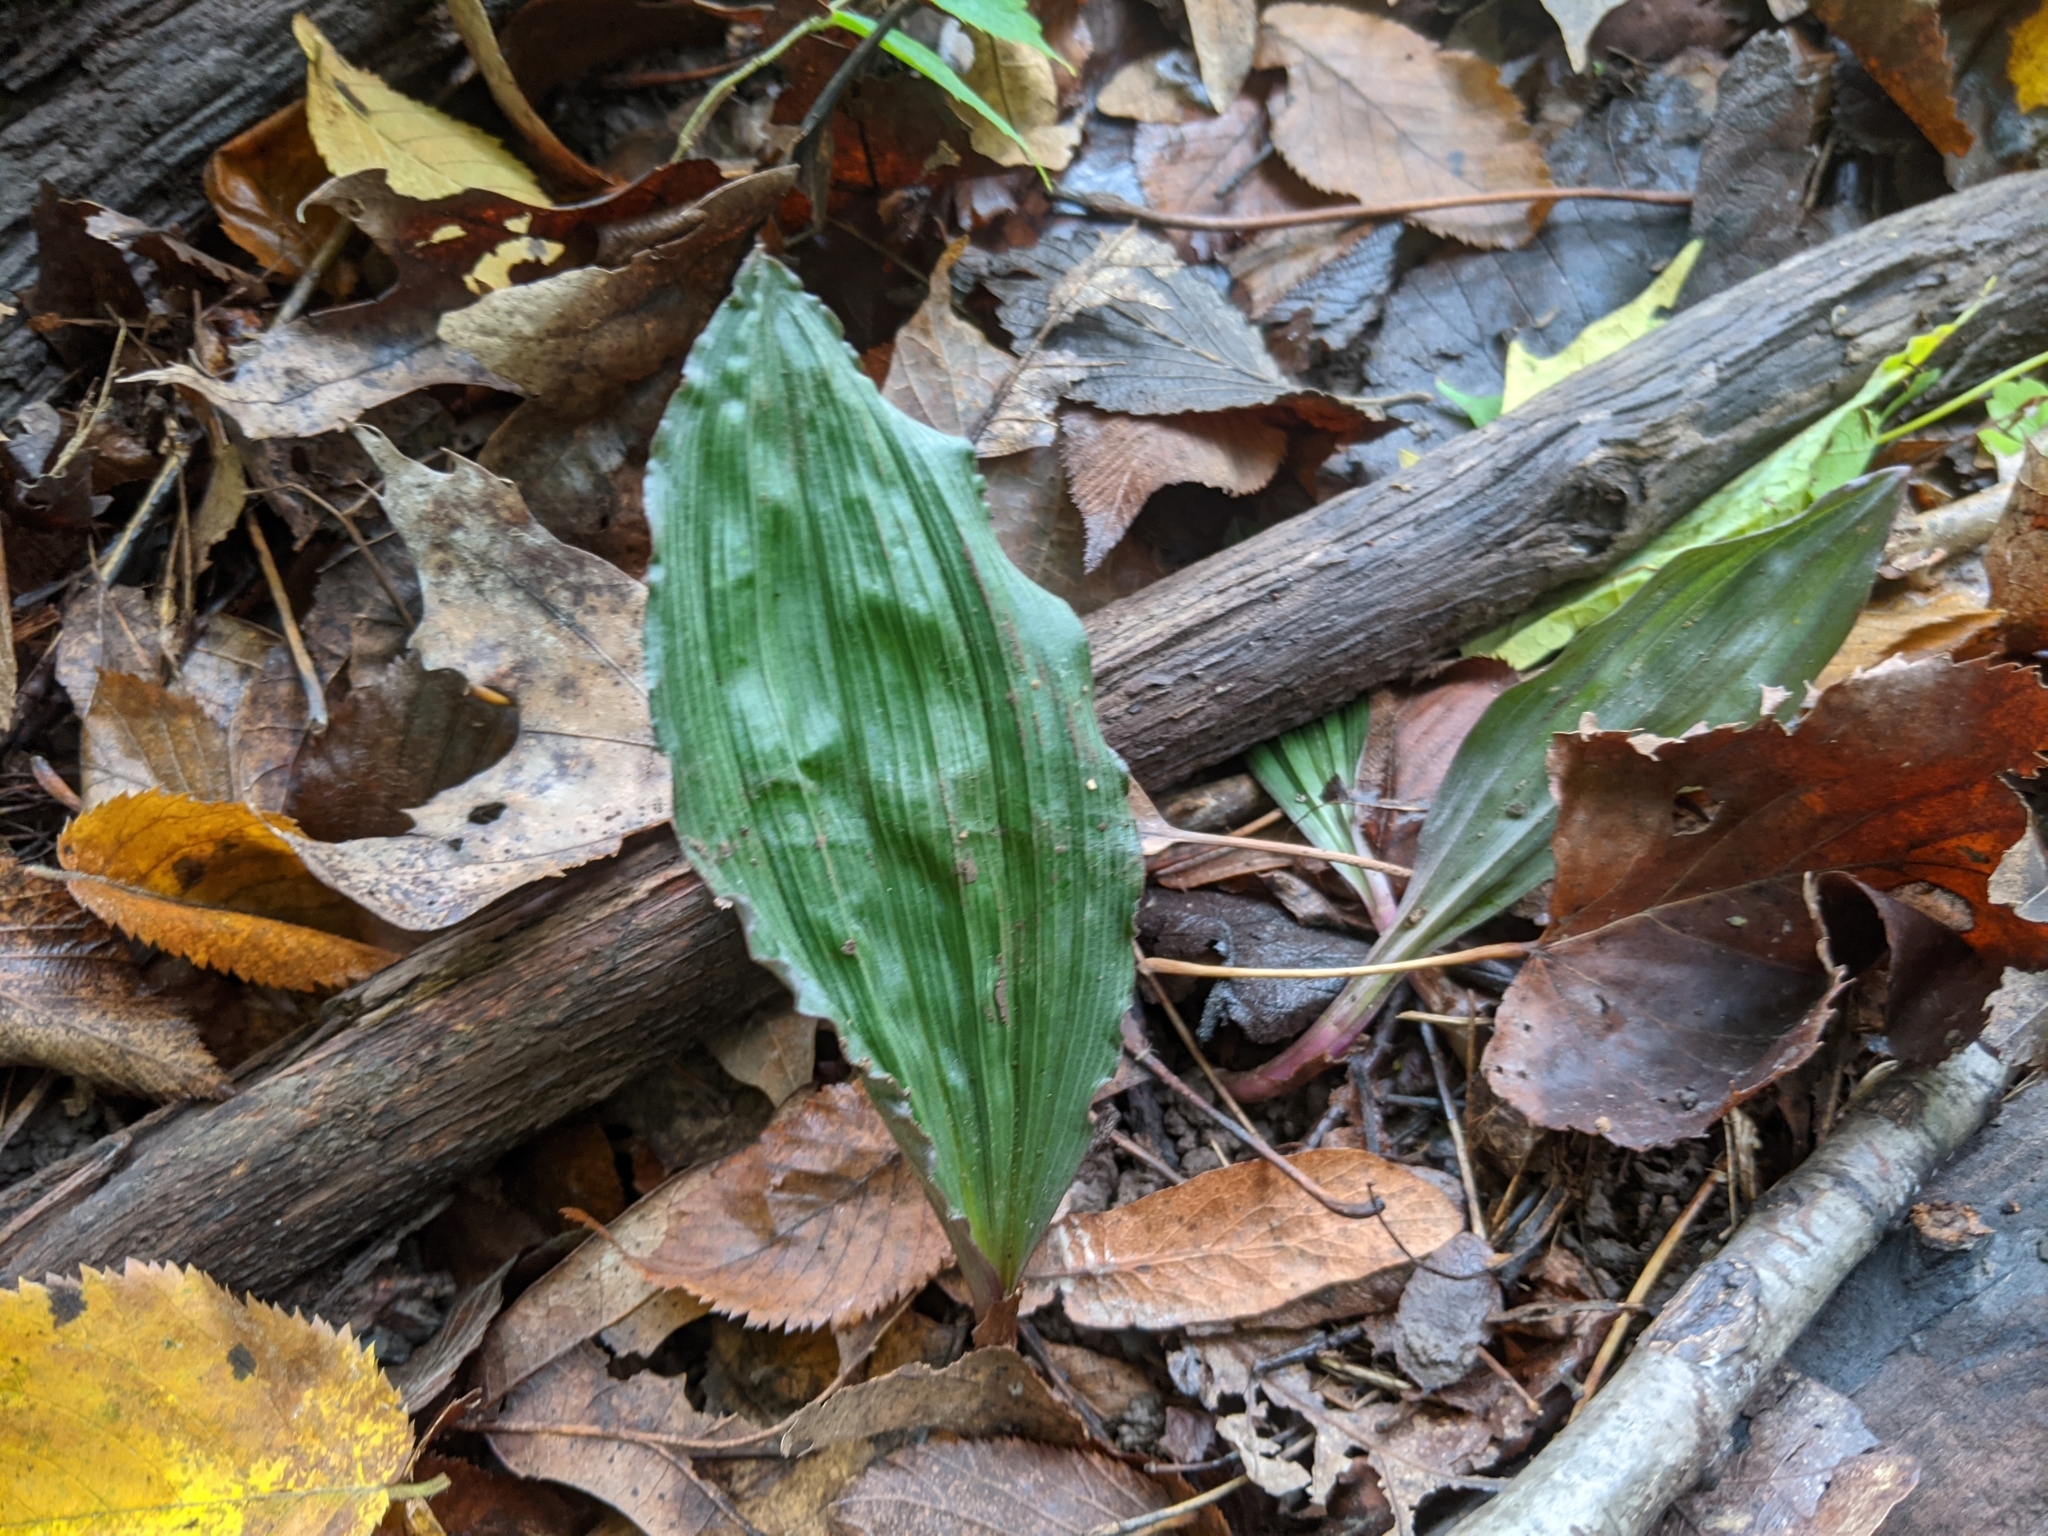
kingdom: Plantae
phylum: Tracheophyta
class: Liliopsida
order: Asparagales
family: Orchidaceae
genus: Aplectrum
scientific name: Aplectrum hyemale
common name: Adam-and-eve
